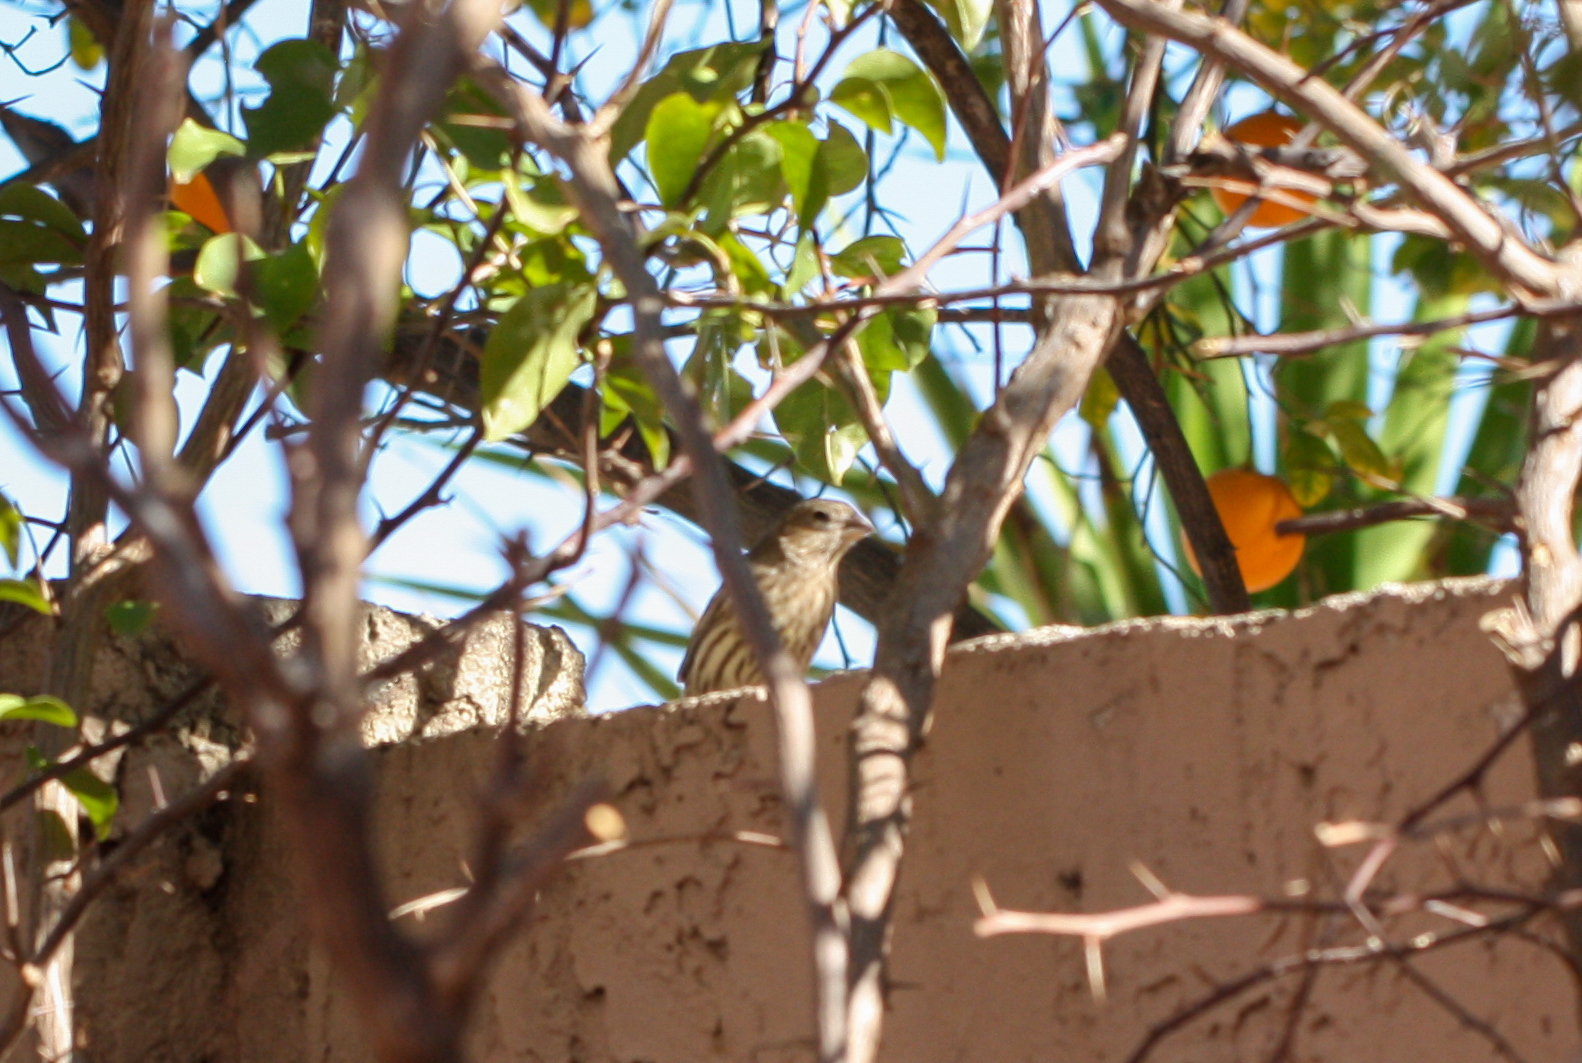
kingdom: Animalia
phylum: Chordata
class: Aves
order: Passeriformes
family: Fringillidae
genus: Haemorhous
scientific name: Haemorhous mexicanus
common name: House finch
